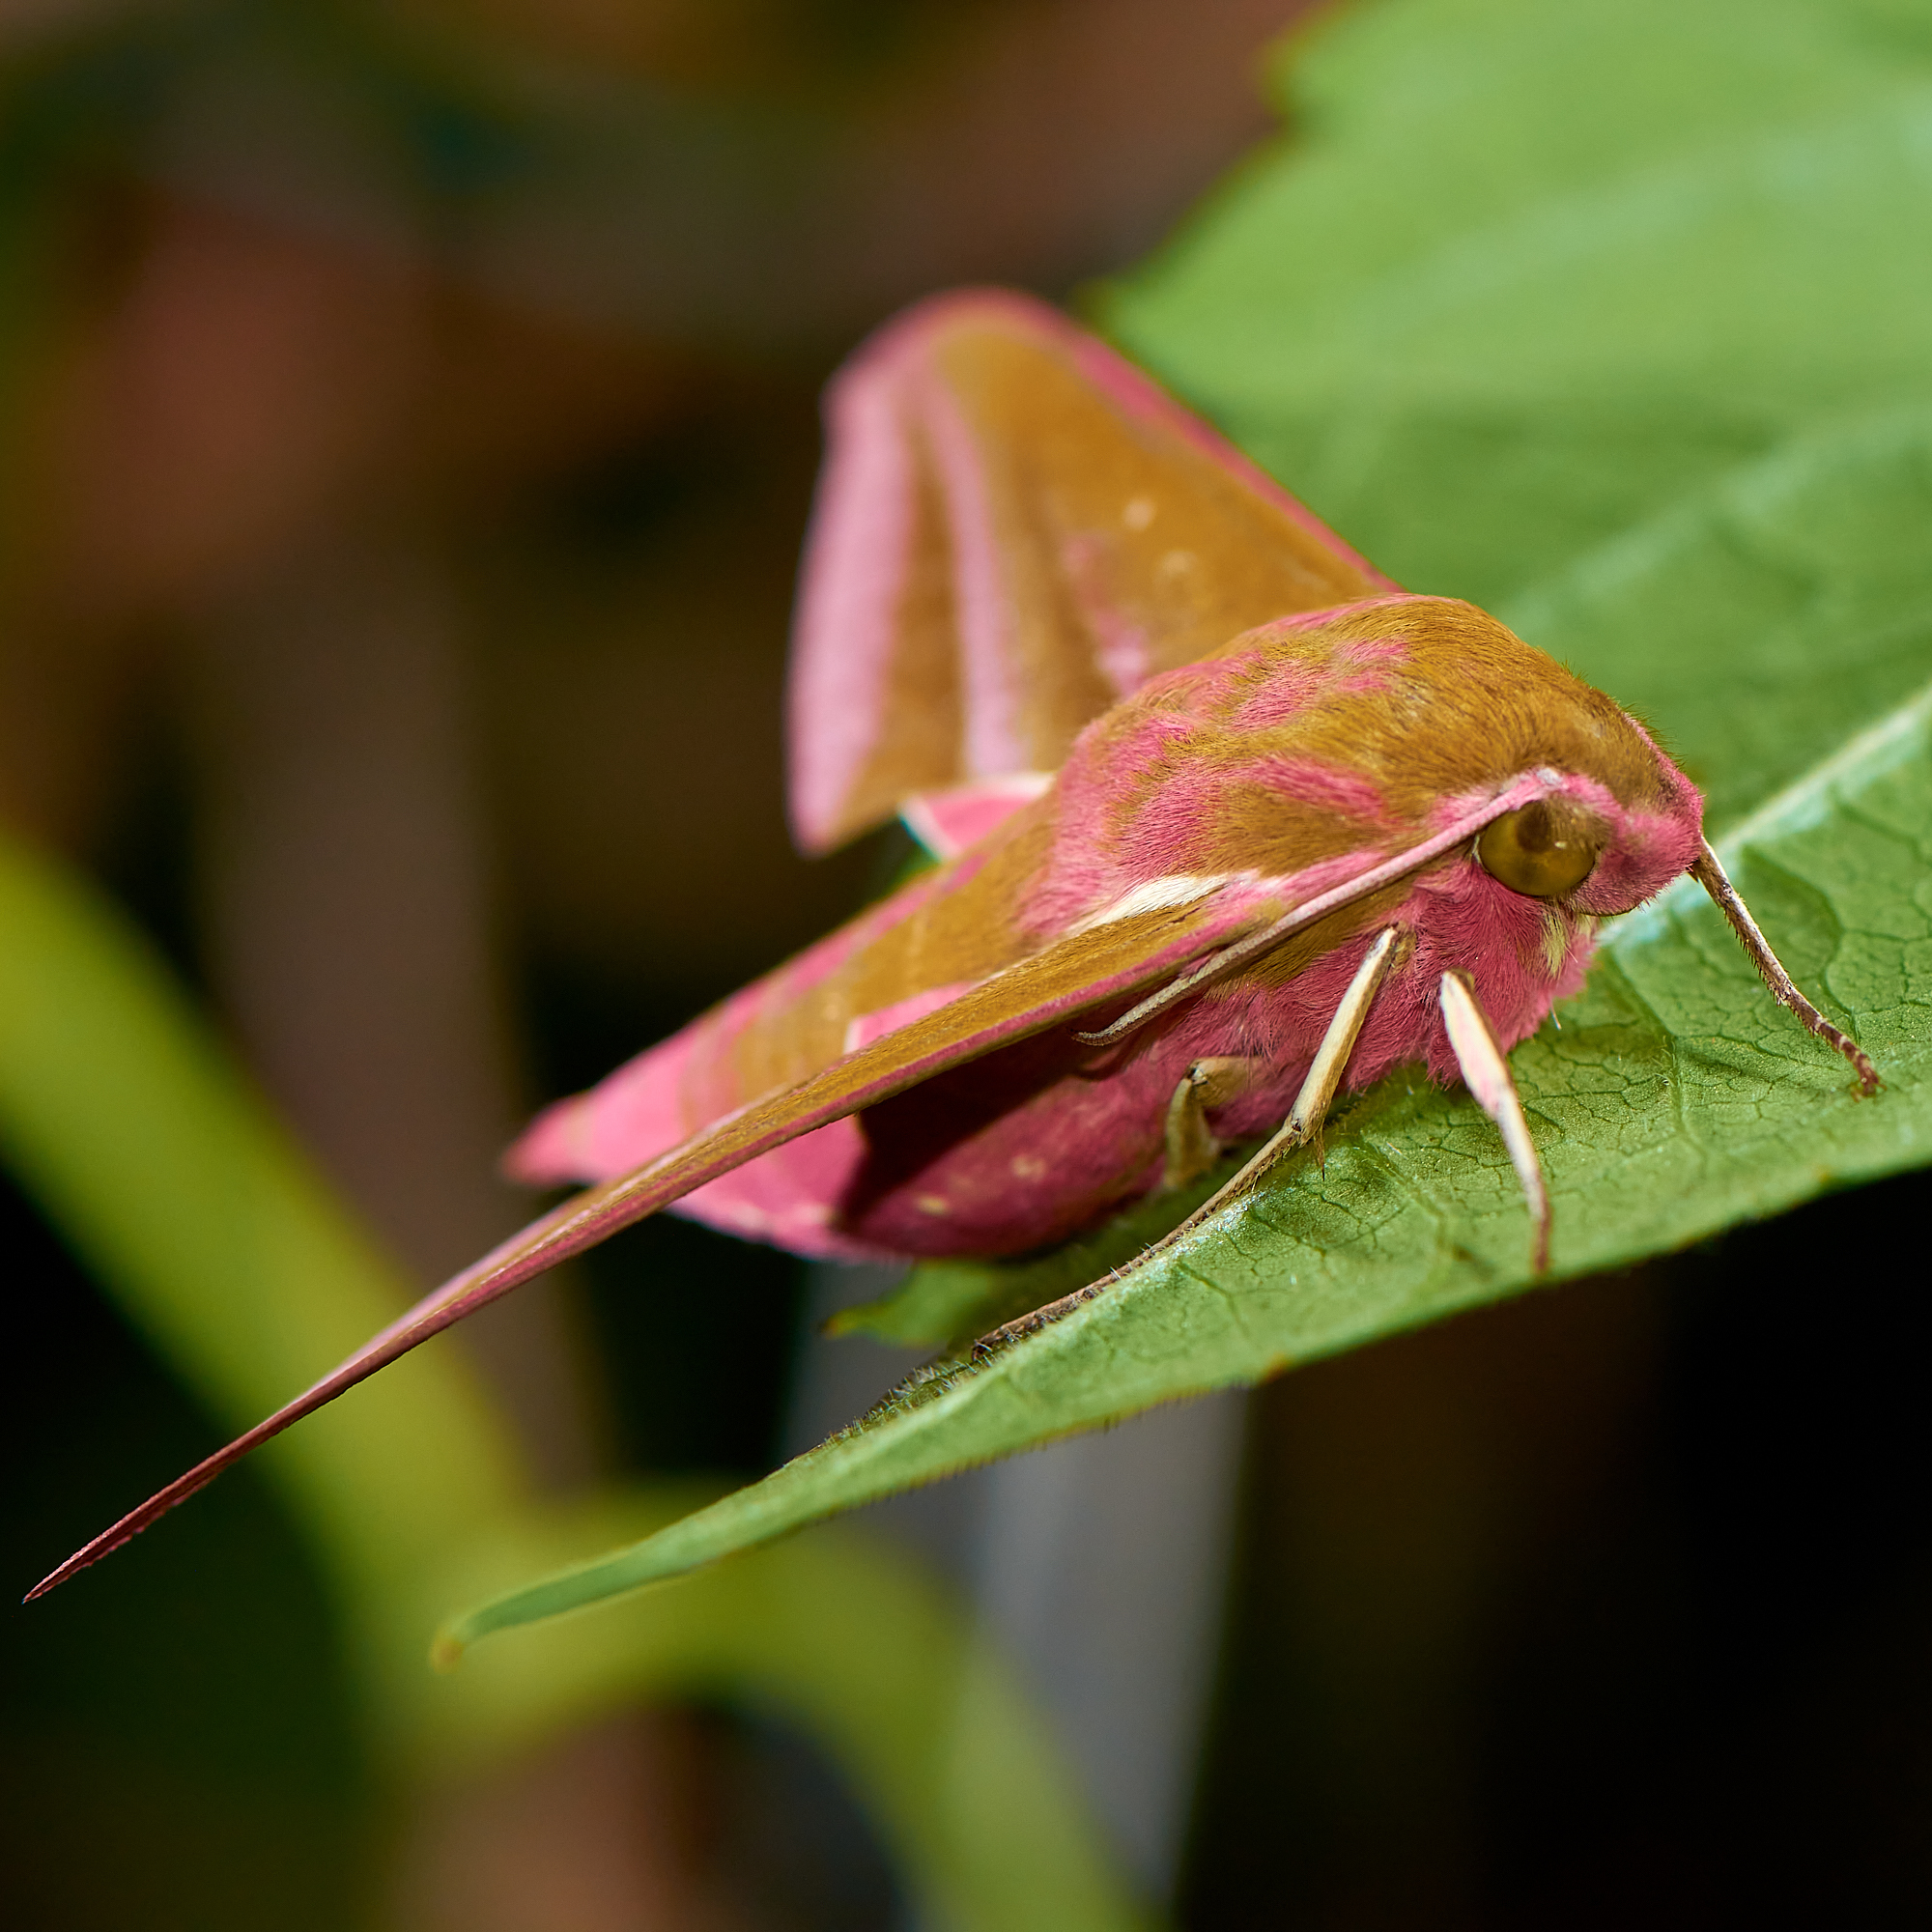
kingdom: Animalia
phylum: Arthropoda
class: Insecta
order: Lepidoptera
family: Sphingidae
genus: Deilephila
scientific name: Deilephila elpenor
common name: Elephant hawk-moth
